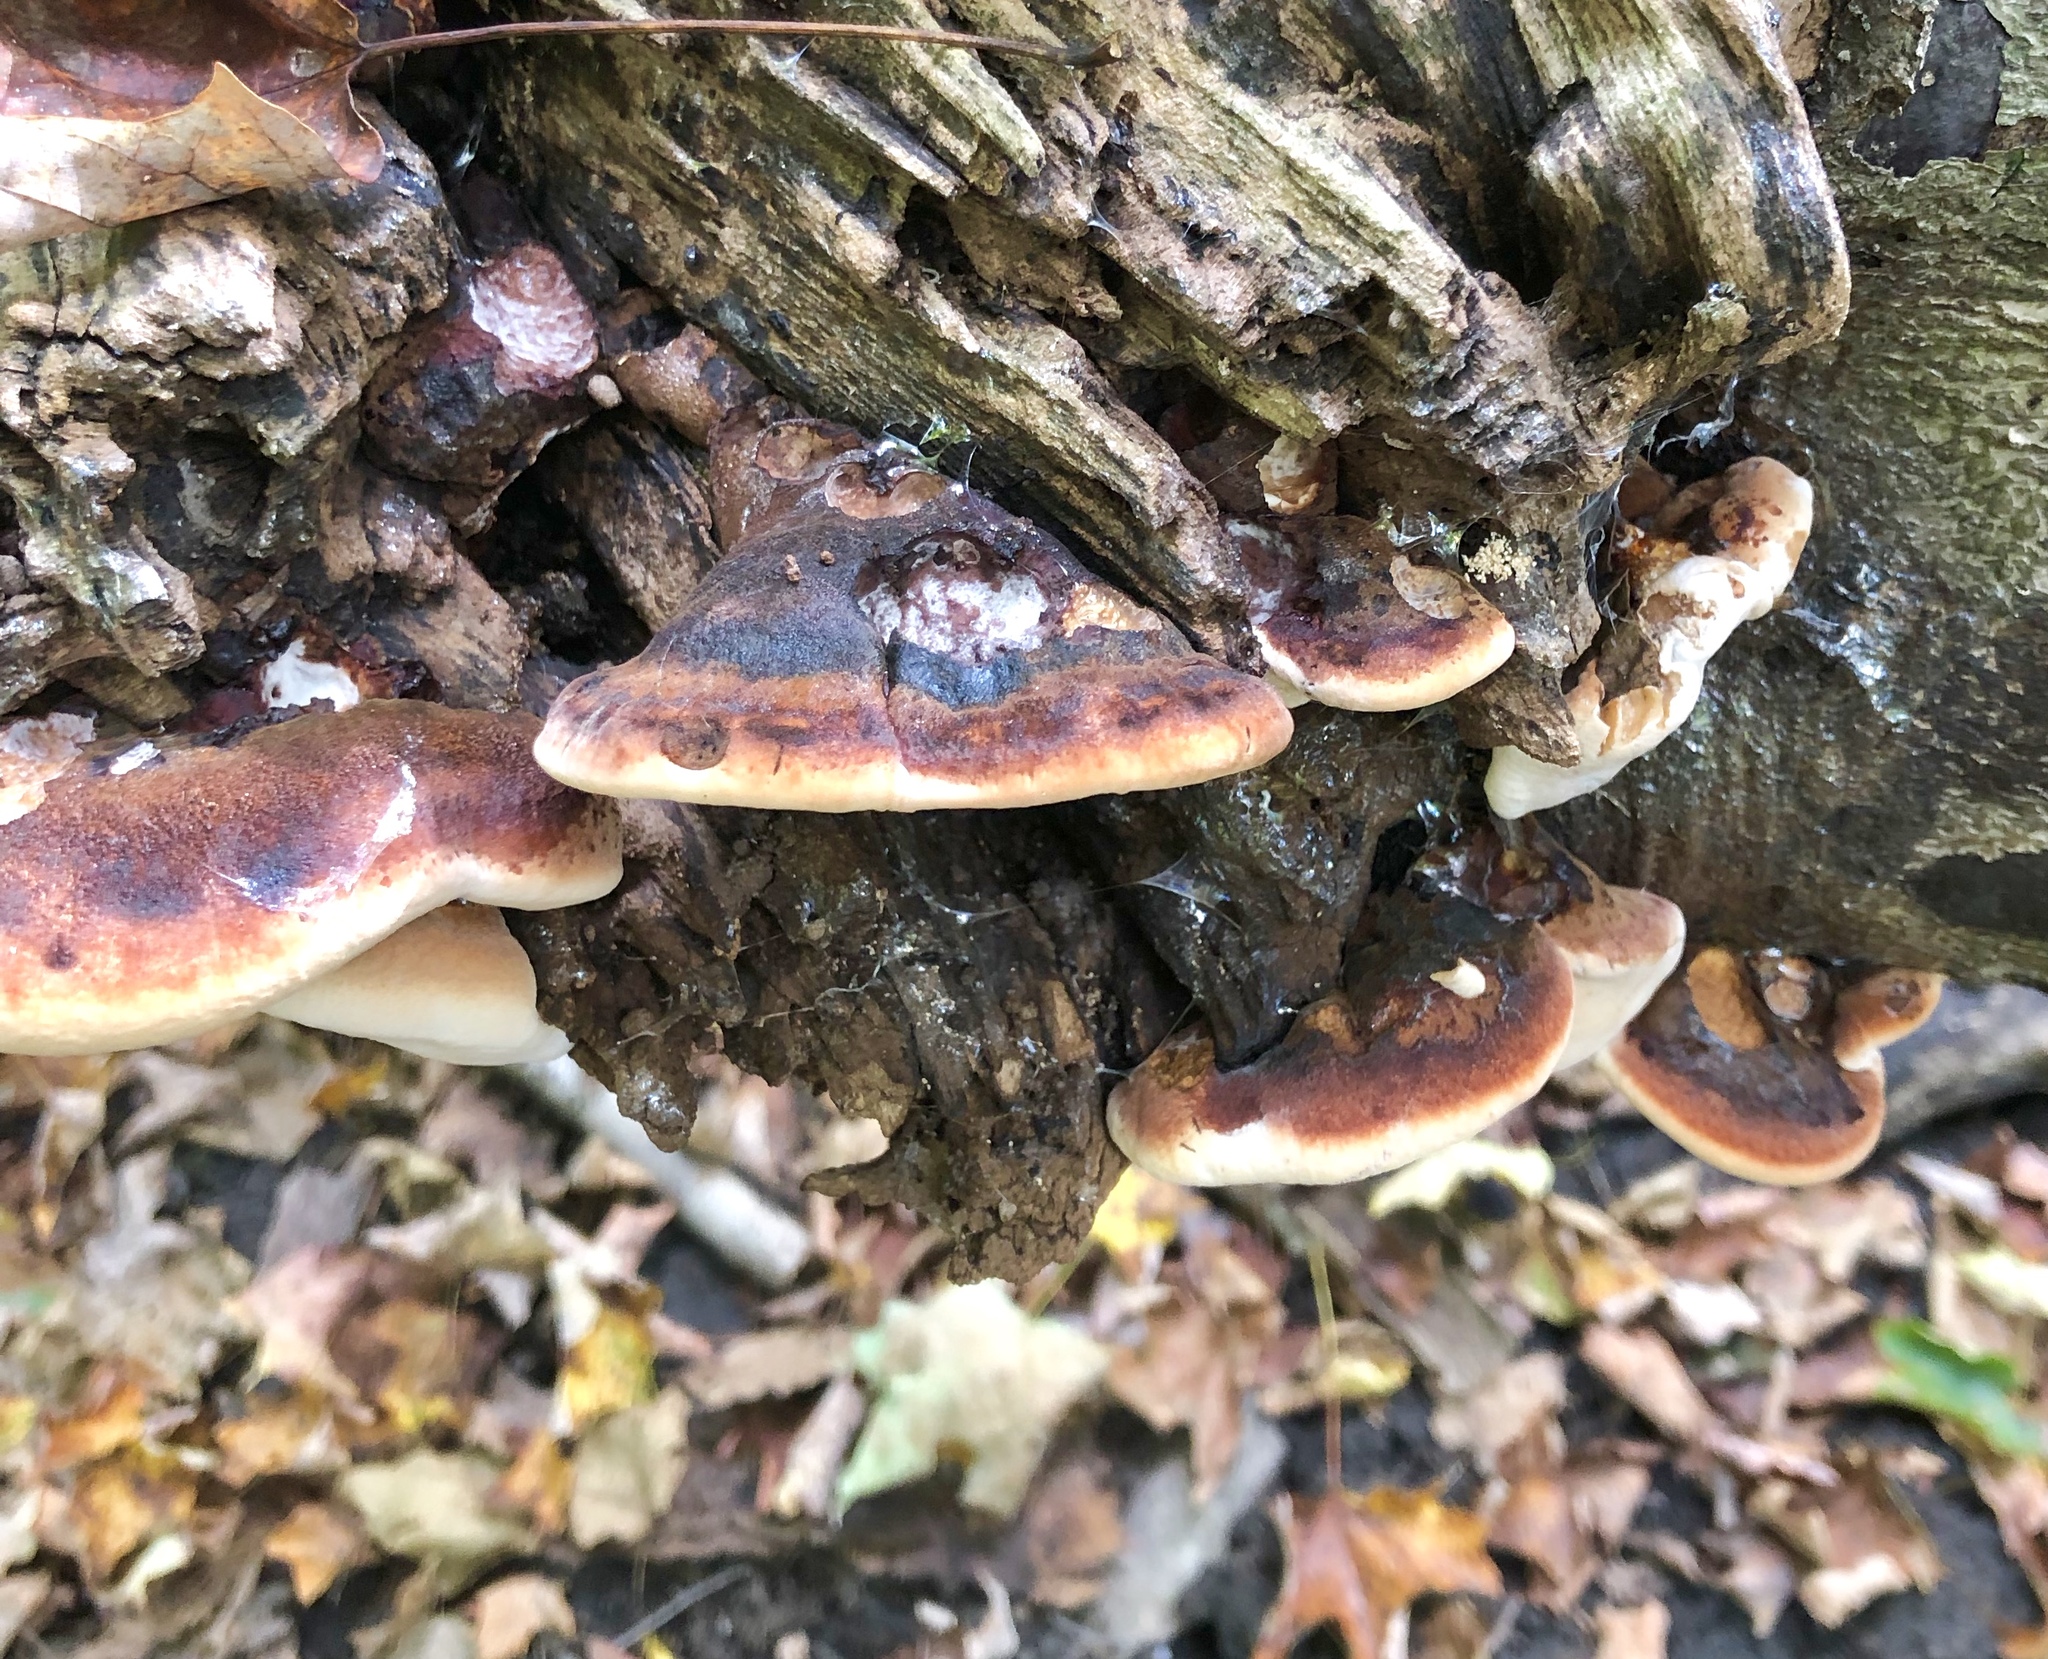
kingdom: Fungi
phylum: Basidiomycota
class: Agaricomycetes
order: Polyporales
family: Ischnodermataceae
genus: Ischnoderma
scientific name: Ischnoderma resinosum
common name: Resinous polypore
